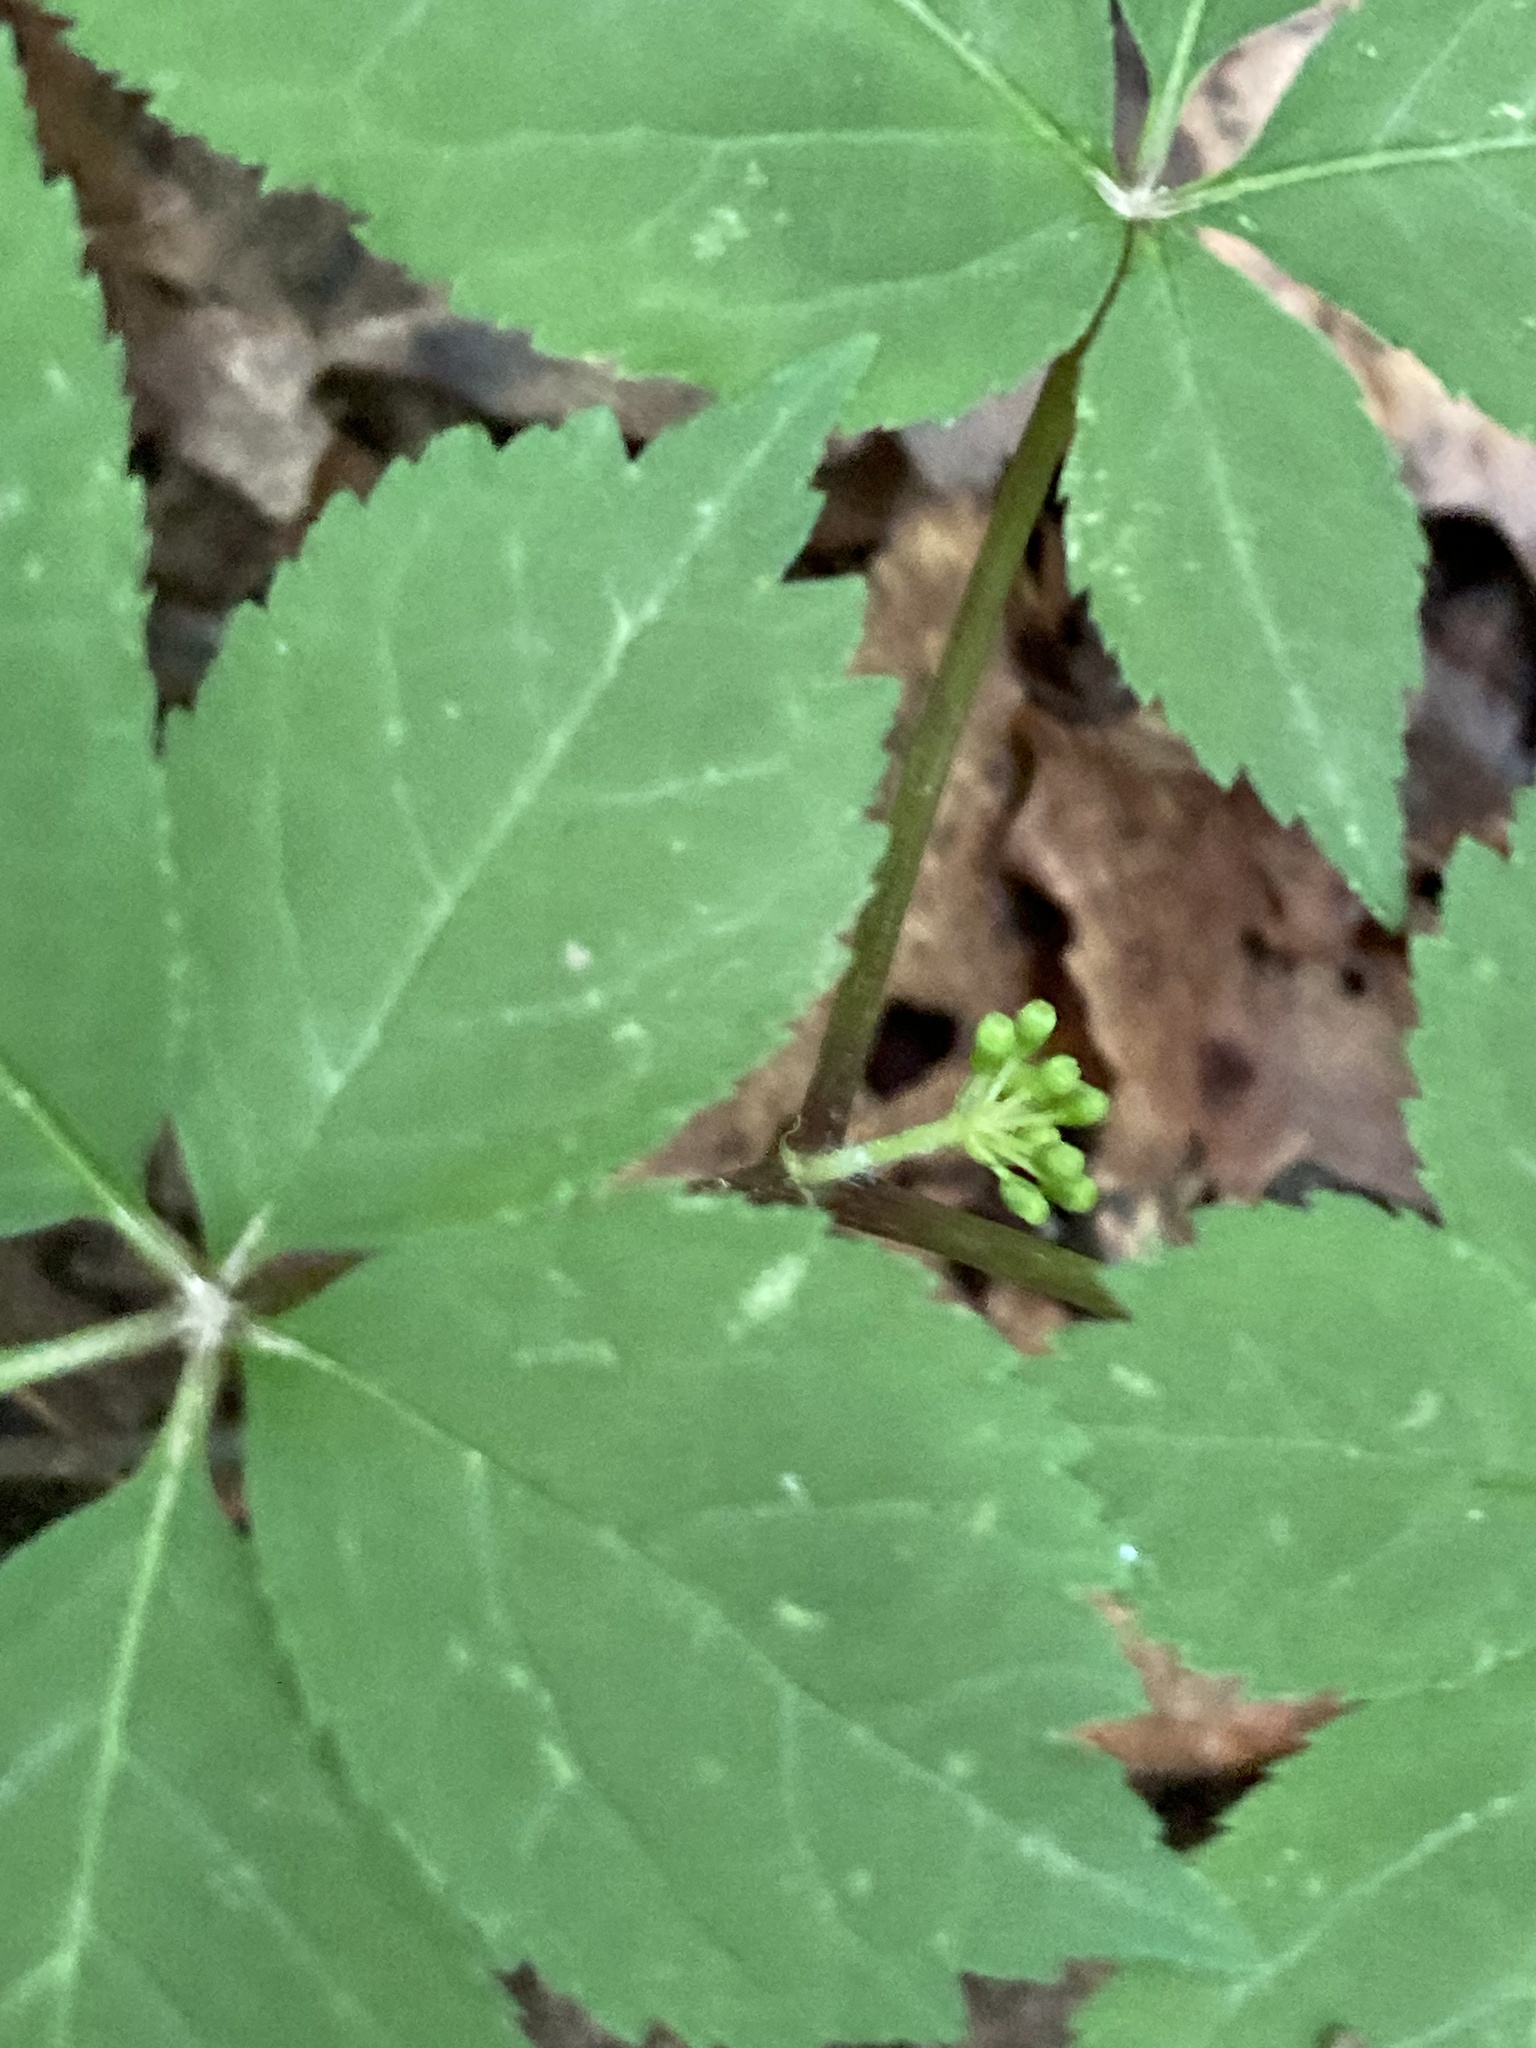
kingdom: Plantae
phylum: Tracheophyta
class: Magnoliopsida
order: Apiales
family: Araliaceae
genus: Panax
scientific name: Panax quinquefolius
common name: American ginseng
